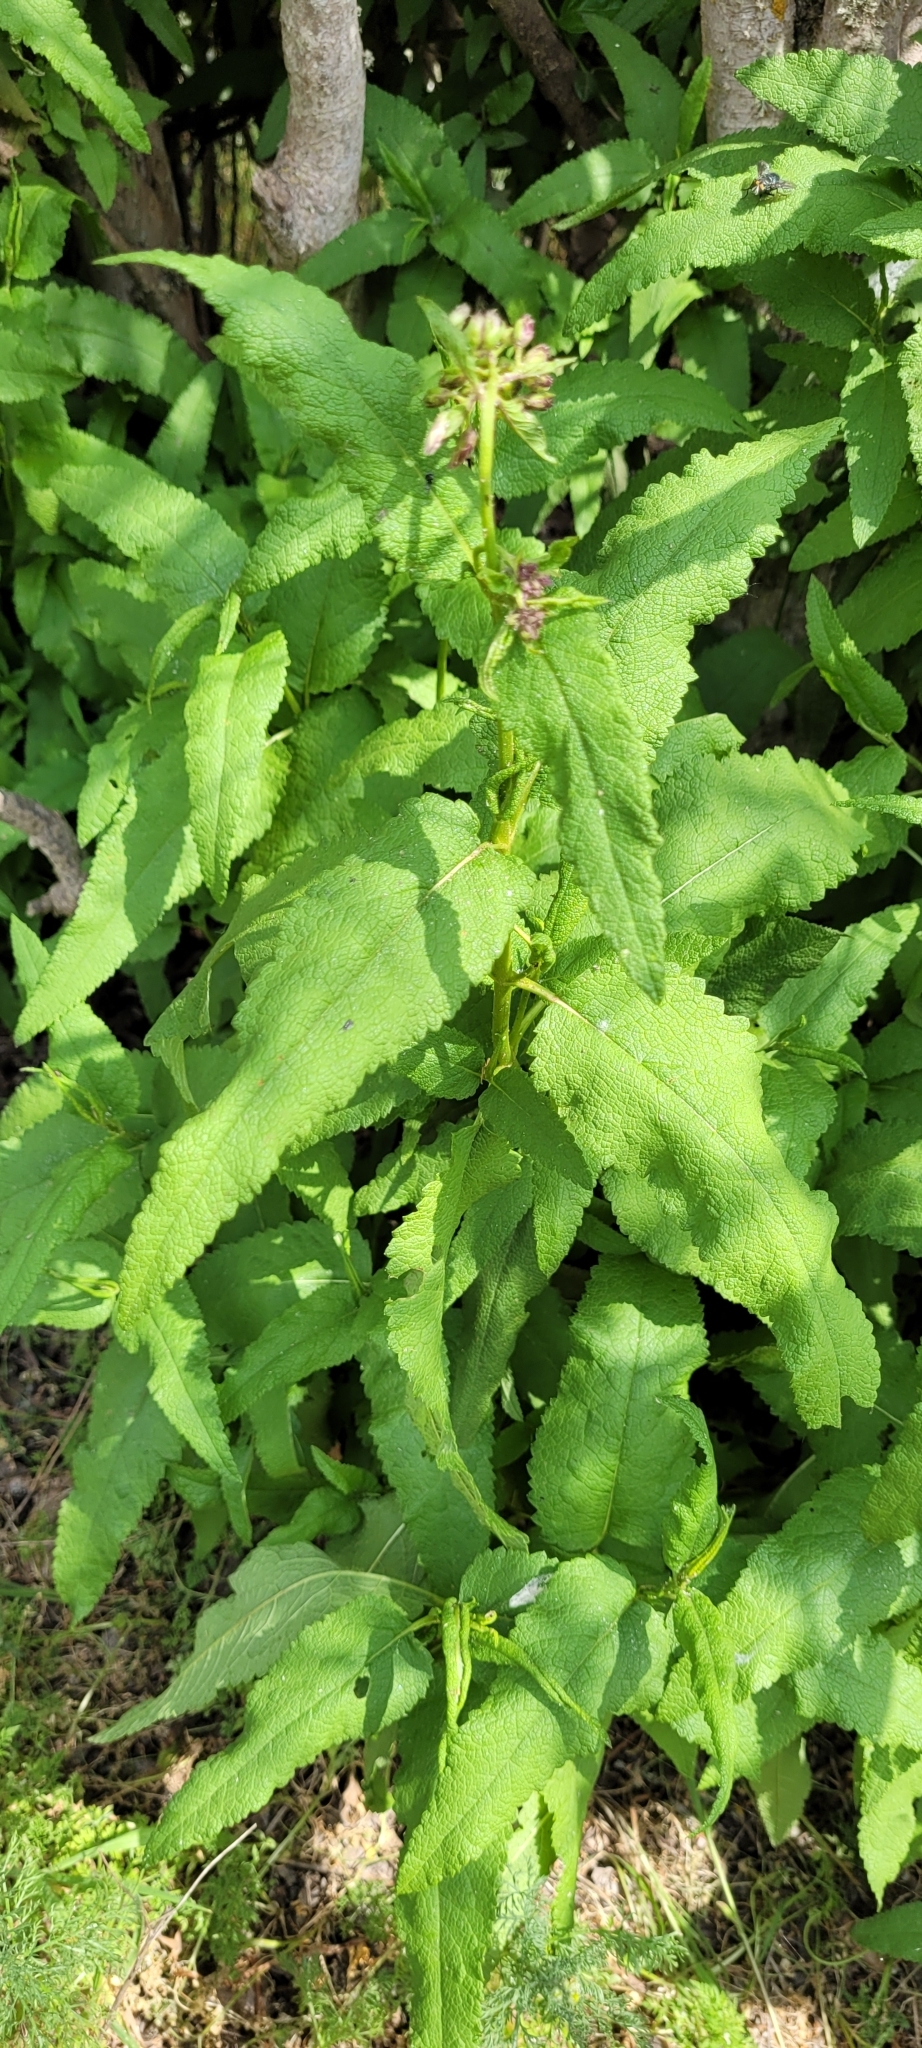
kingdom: Plantae
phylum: Tracheophyta
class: Magnoliopsida
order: Asterales
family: Asteraceae
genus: Aristeguietia
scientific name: Aristeguietia salvia
